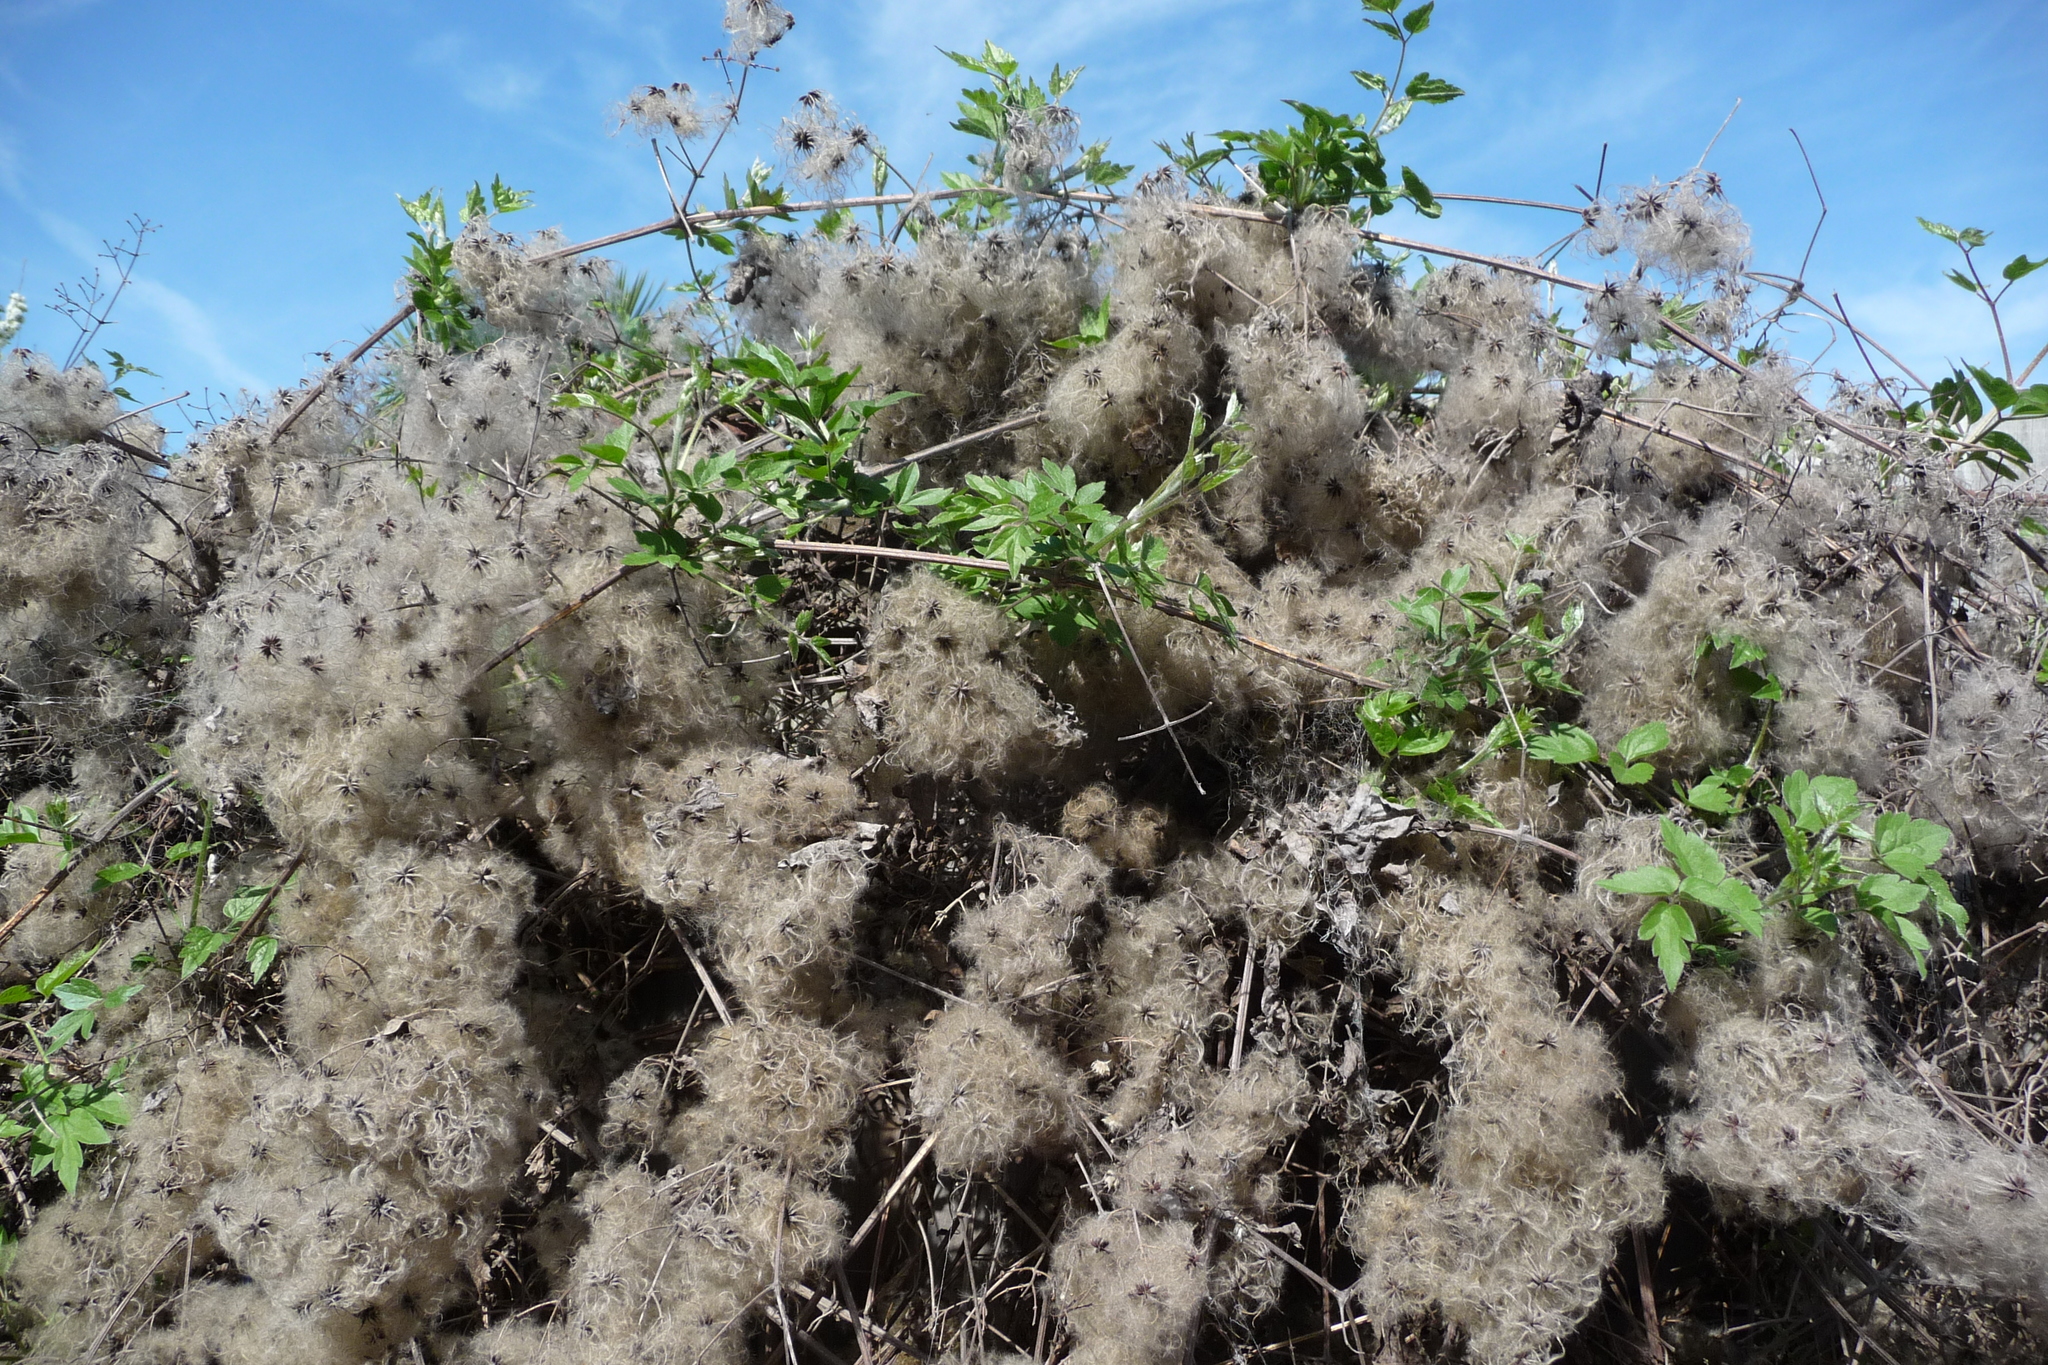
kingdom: Plantae
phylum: Tracheophyta
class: Magnoliopsida
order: Ranunculales
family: Ranunculaceae
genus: Clematis
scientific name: Clematis vitalba
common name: Evergreen clematis
